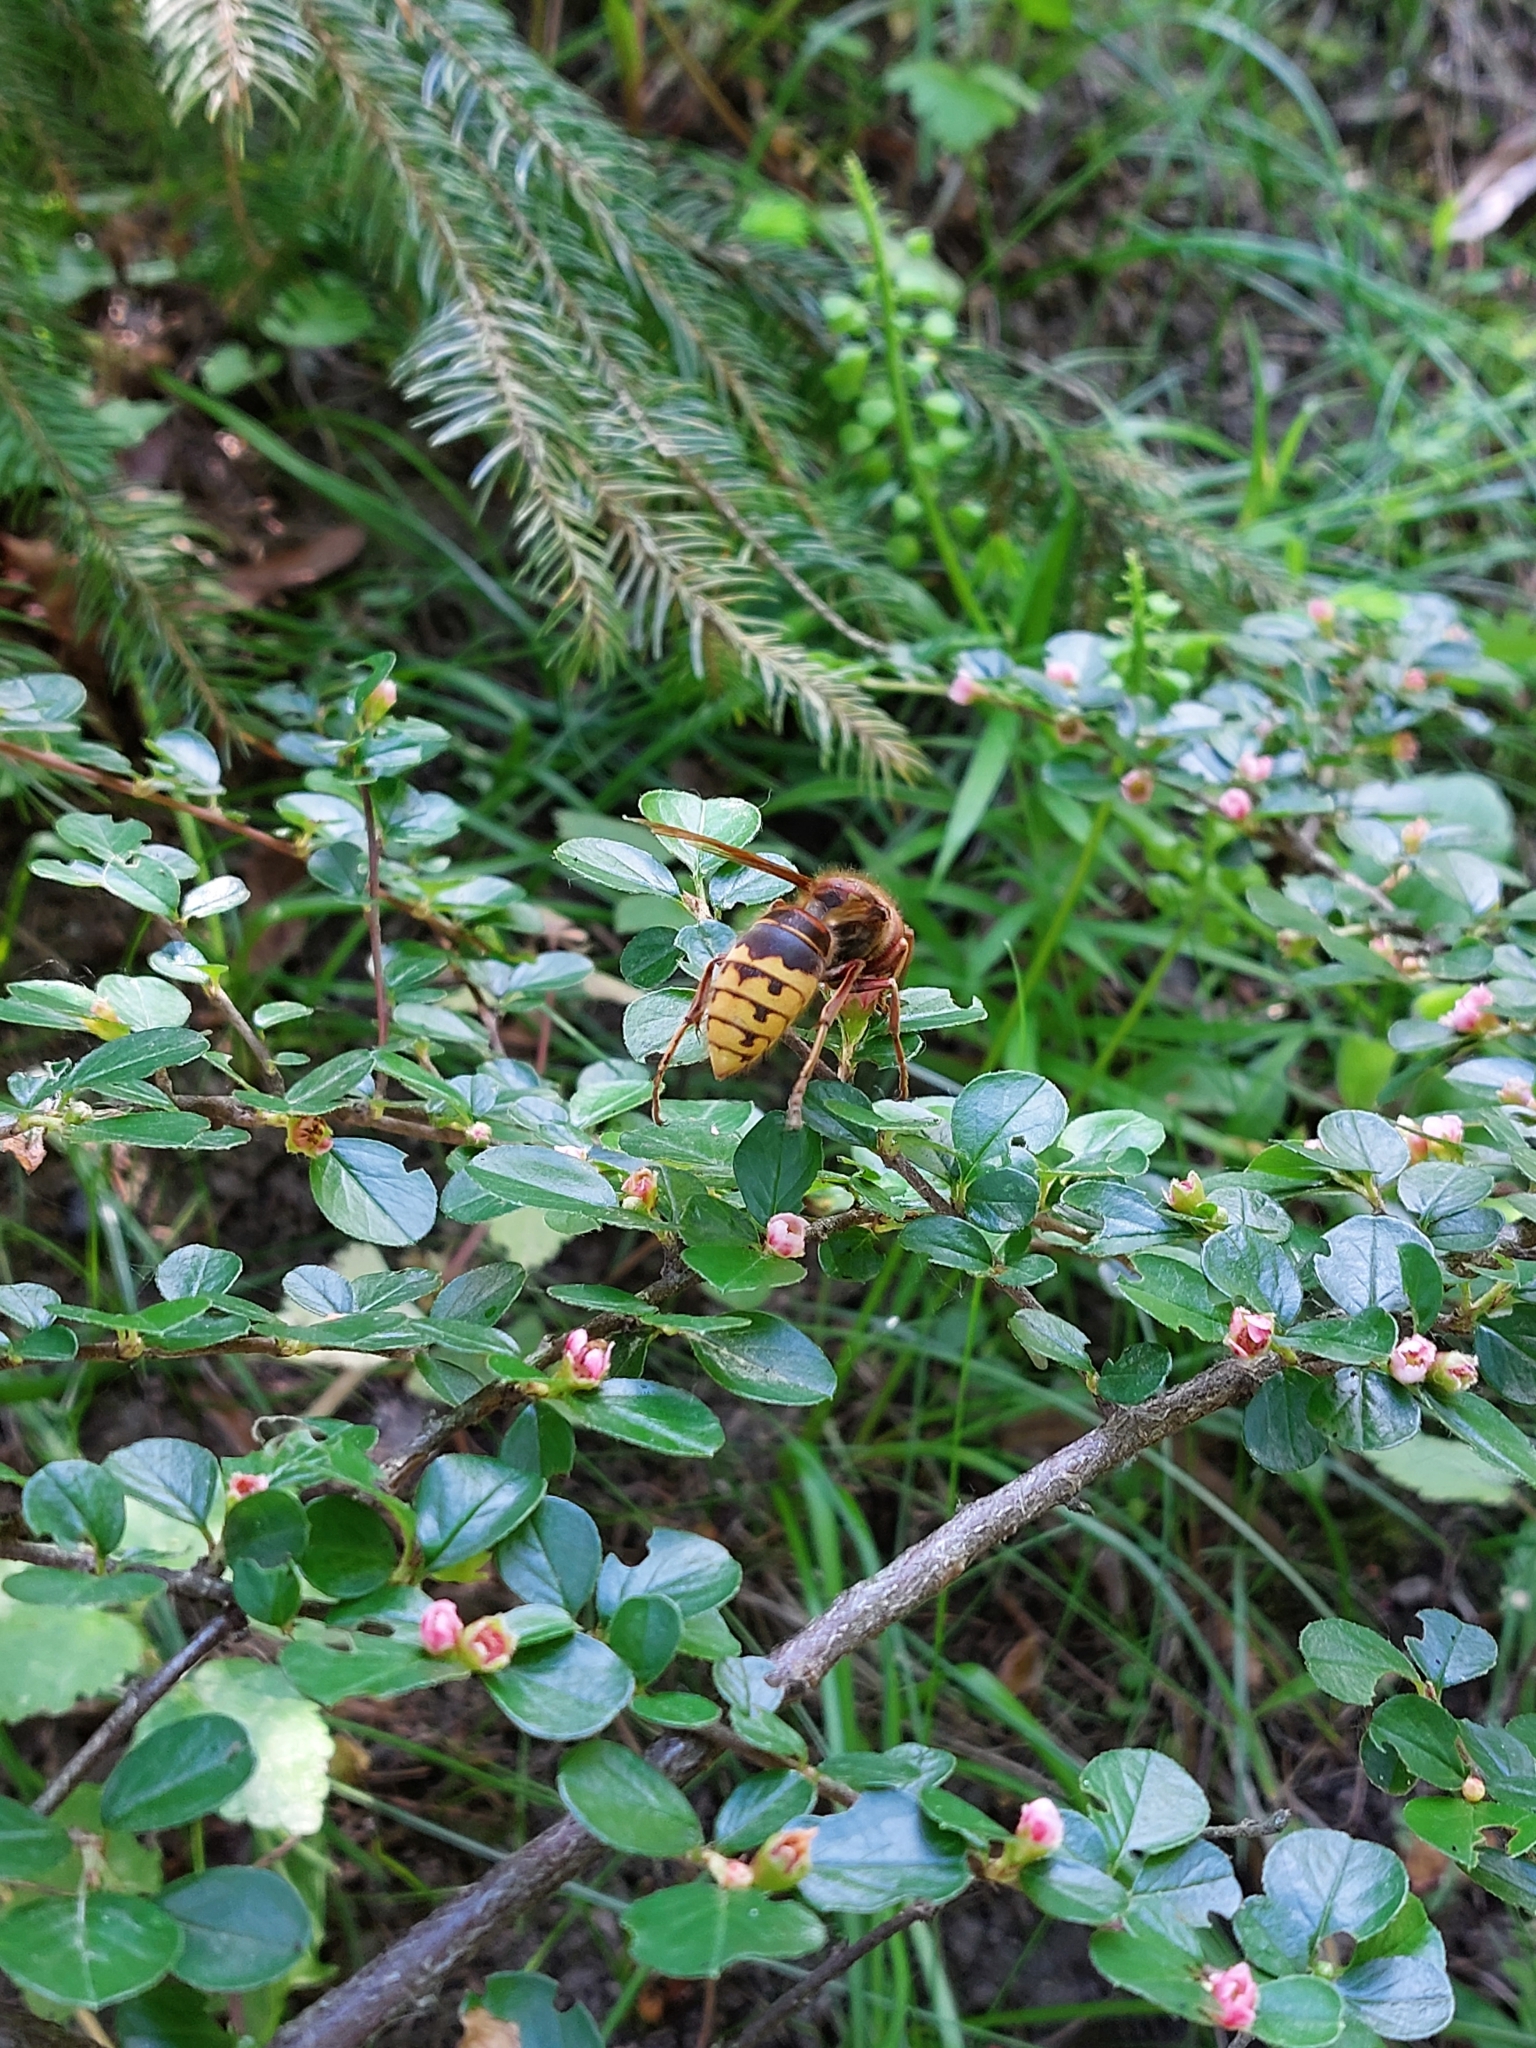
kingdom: Animalia
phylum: Arthropoda
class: Insecta
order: Hymenoptera
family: Vespidae
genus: Vespa
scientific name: Vespa crabro
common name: Hornet
